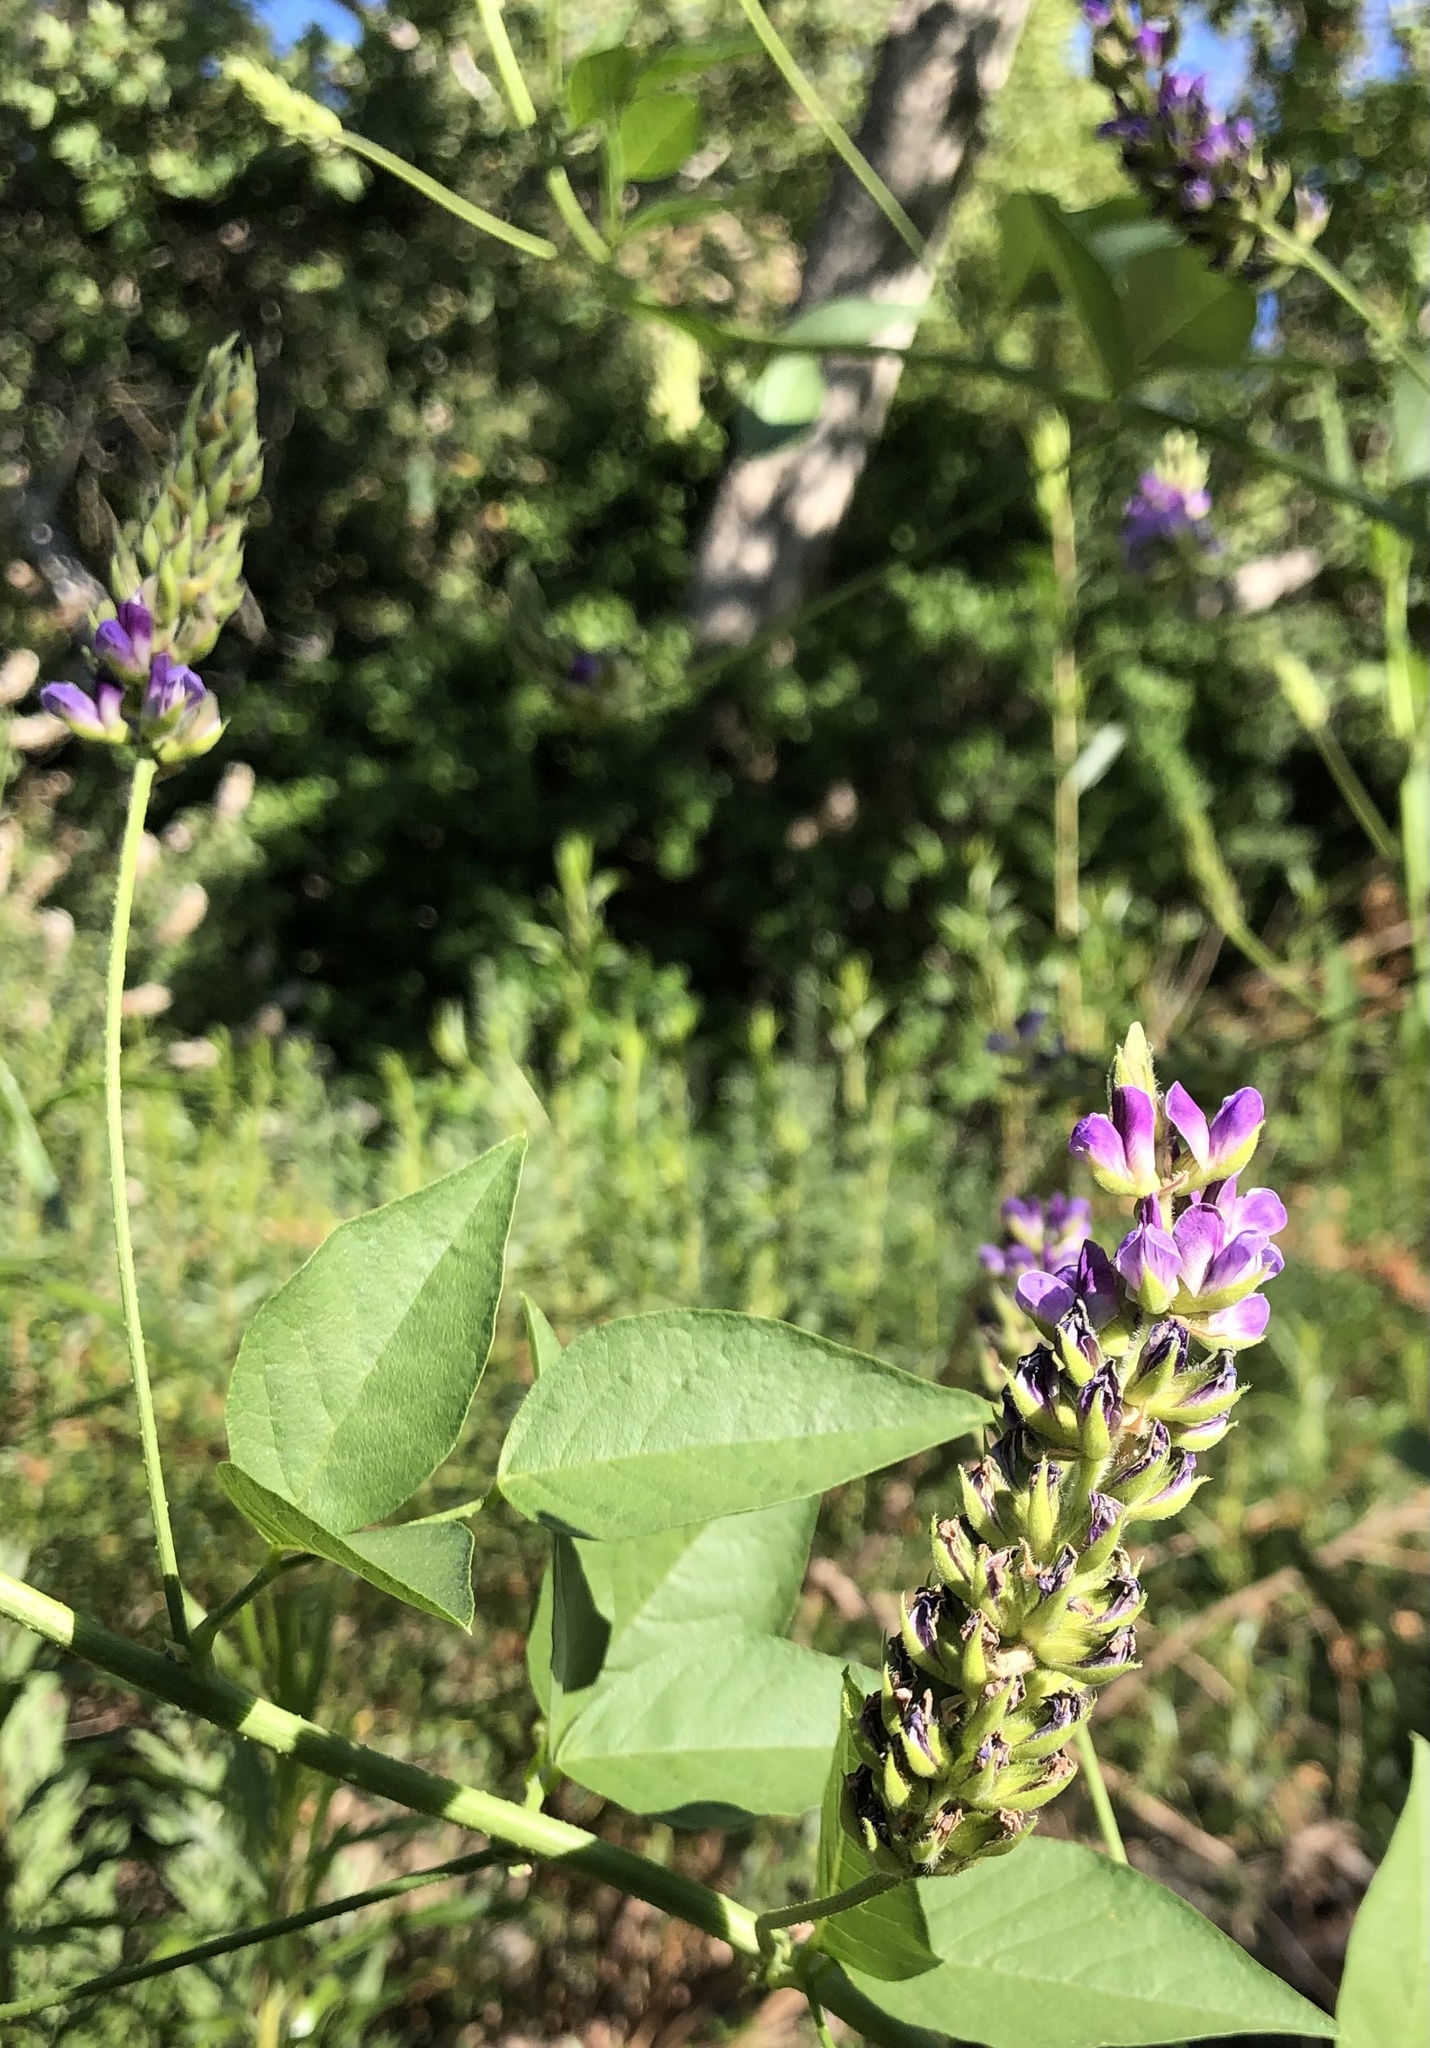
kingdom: Plantae
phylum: Tracheophyta
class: Magnoliopsida
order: Fabales
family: Fabaceae
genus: Hoita
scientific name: Hoita macrostachya
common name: Leatherroot
